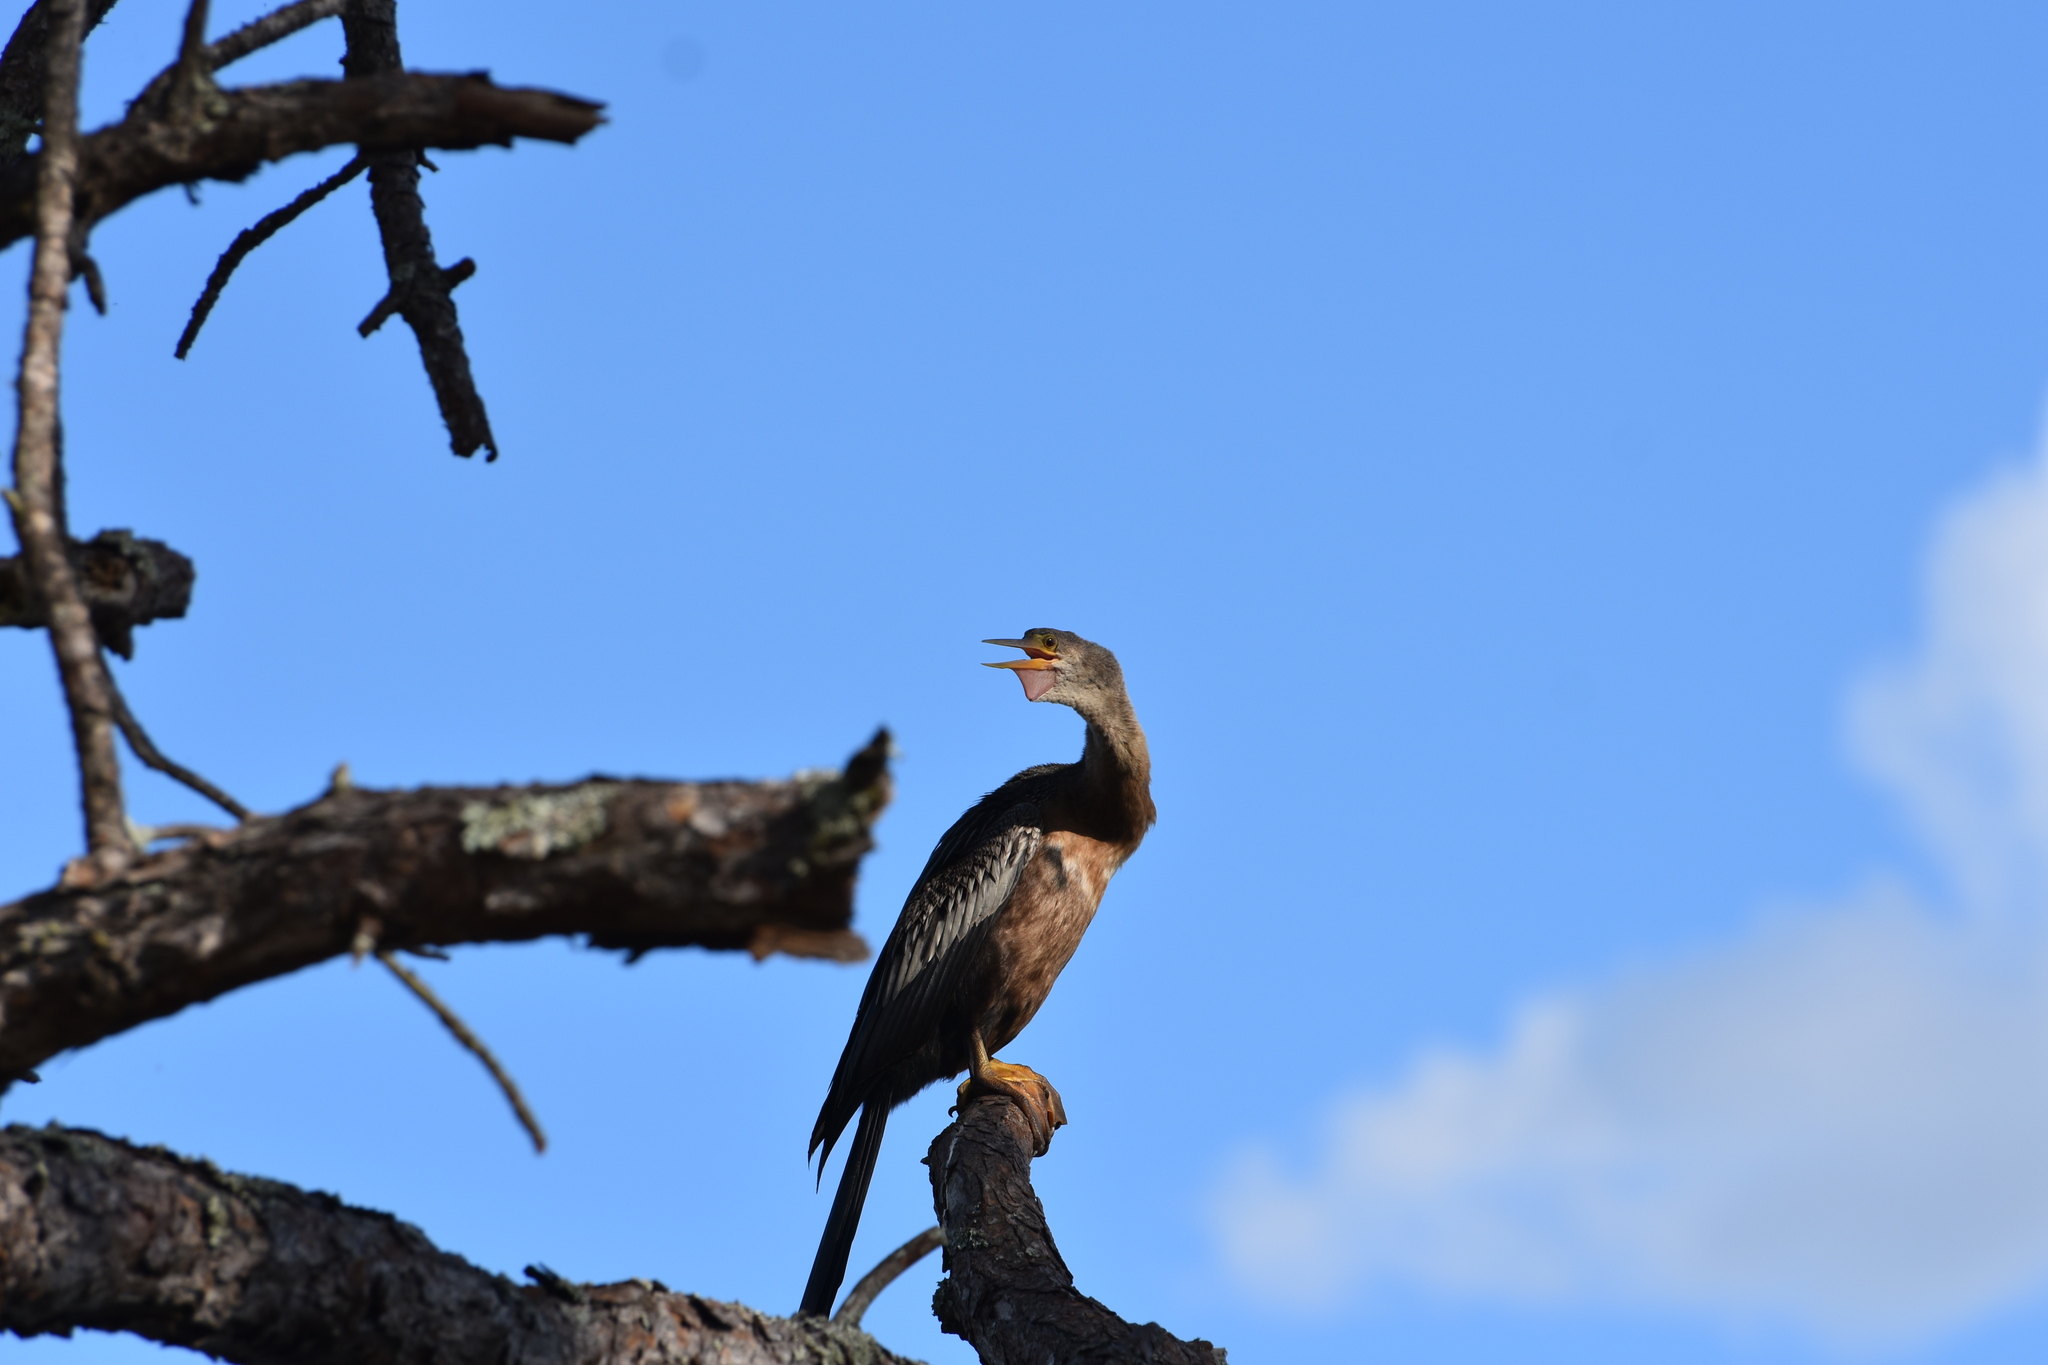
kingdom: Animalia
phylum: Chordata
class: Aves
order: Suliformes
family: Anhingidae
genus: Anhinga
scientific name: Anhinga anhinga
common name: Anhinga
